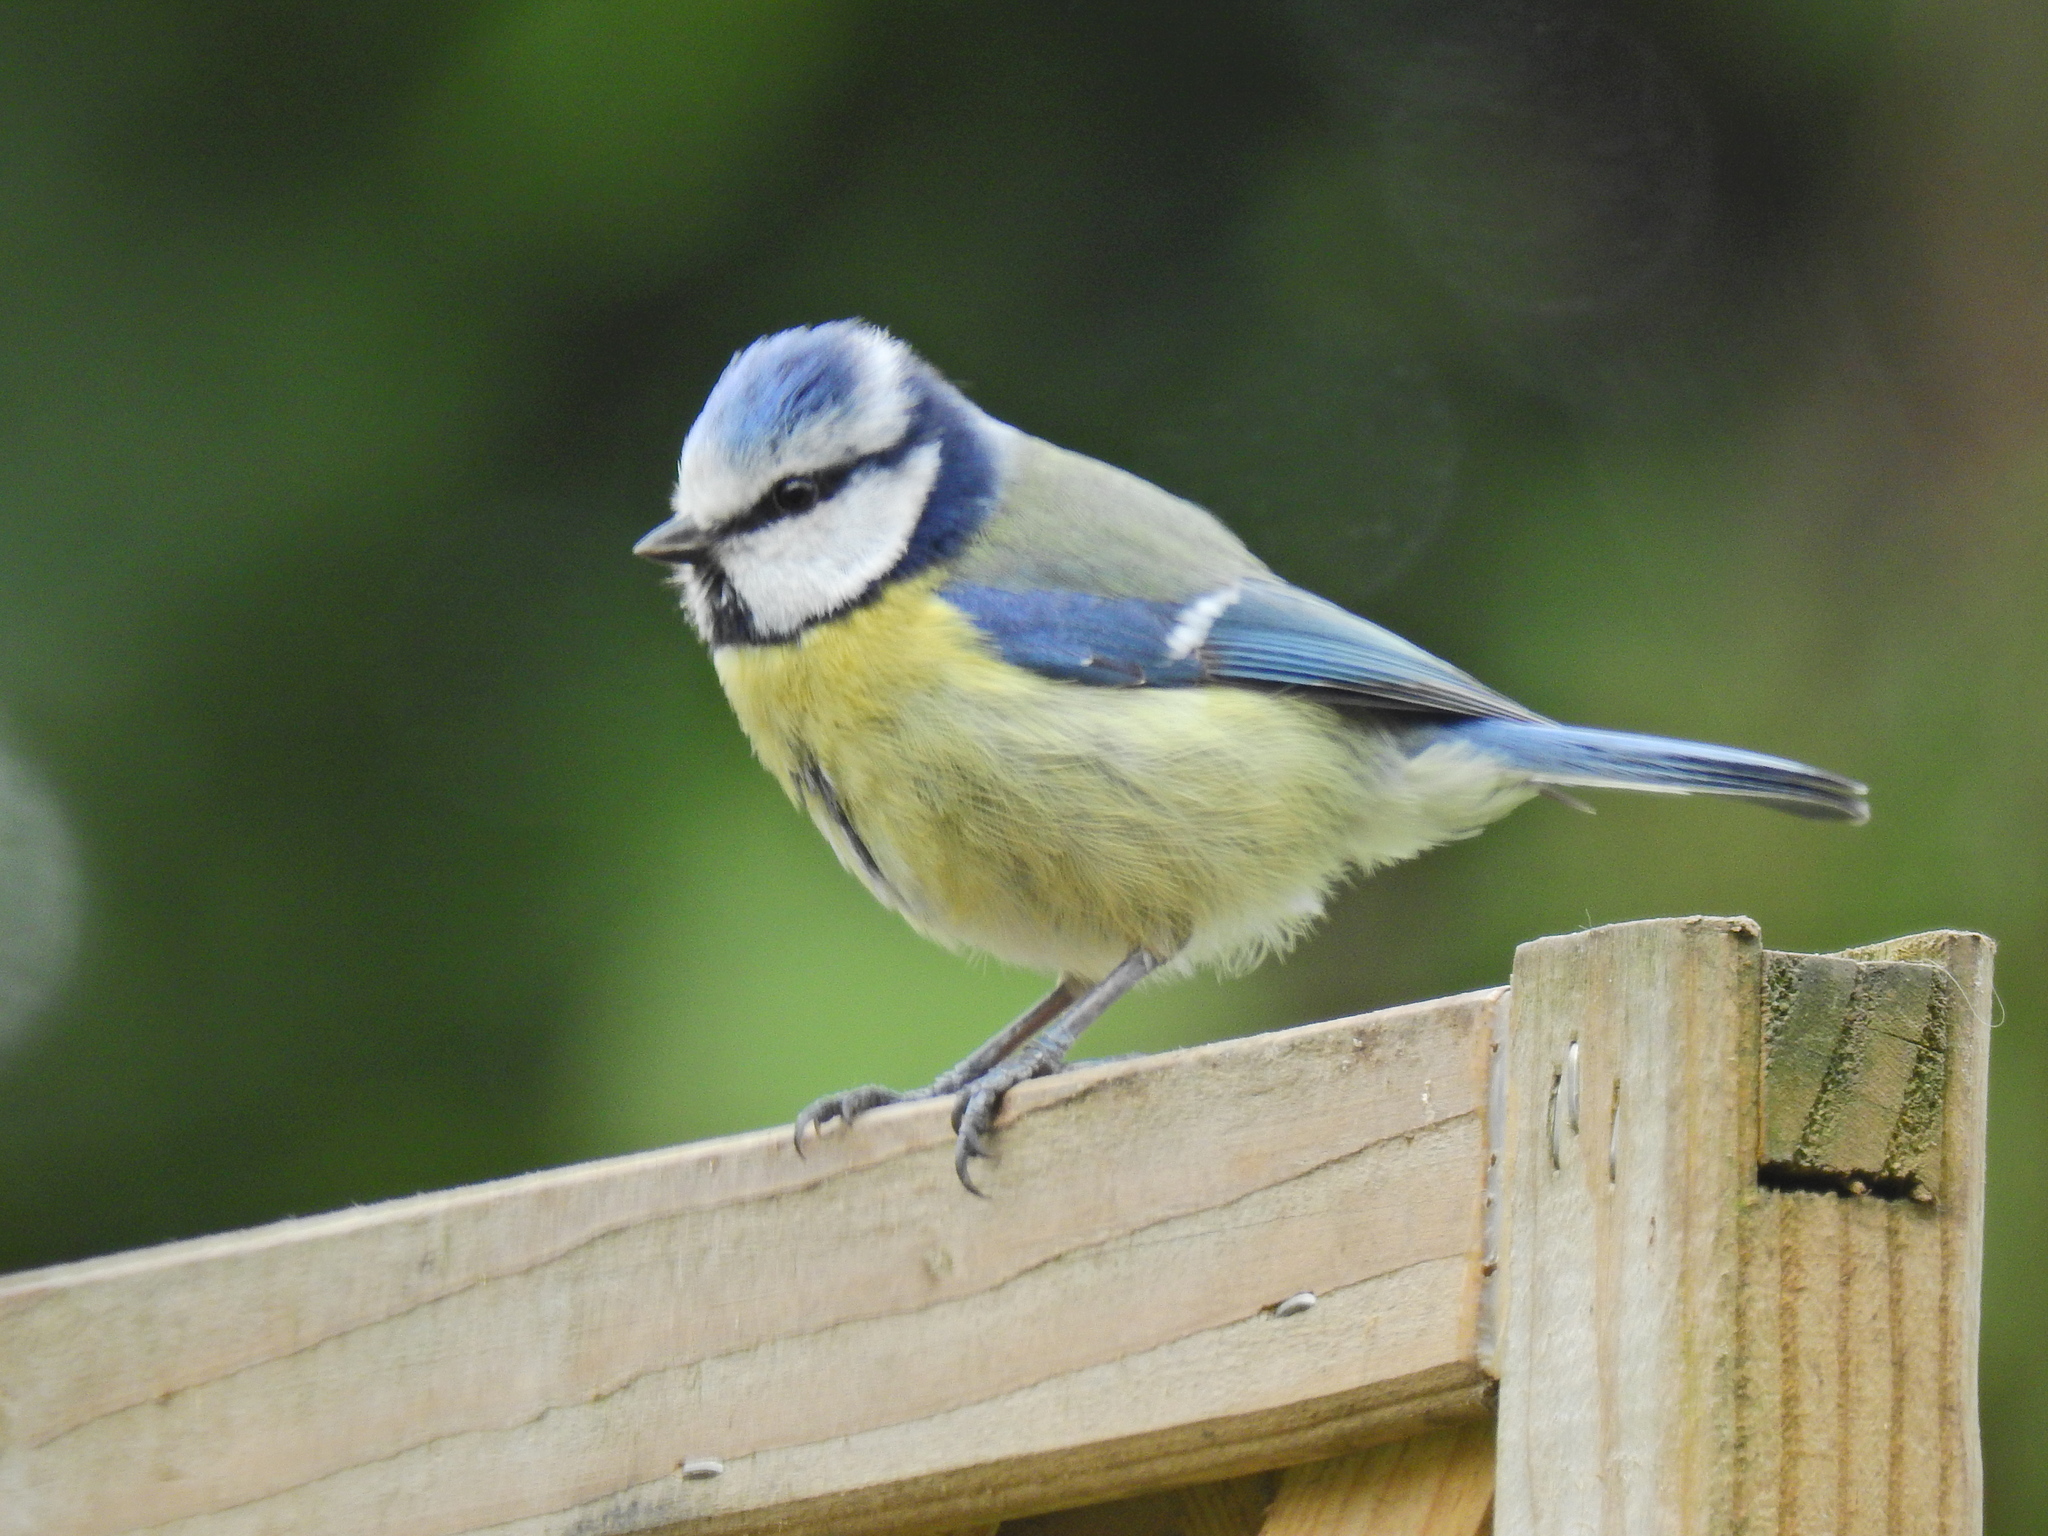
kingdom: Animalia
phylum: Chordata
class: Aves
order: Passeriformes
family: Paridae
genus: Cyanistes
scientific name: Cyanistes caeruleus
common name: Eurasian blue tit
